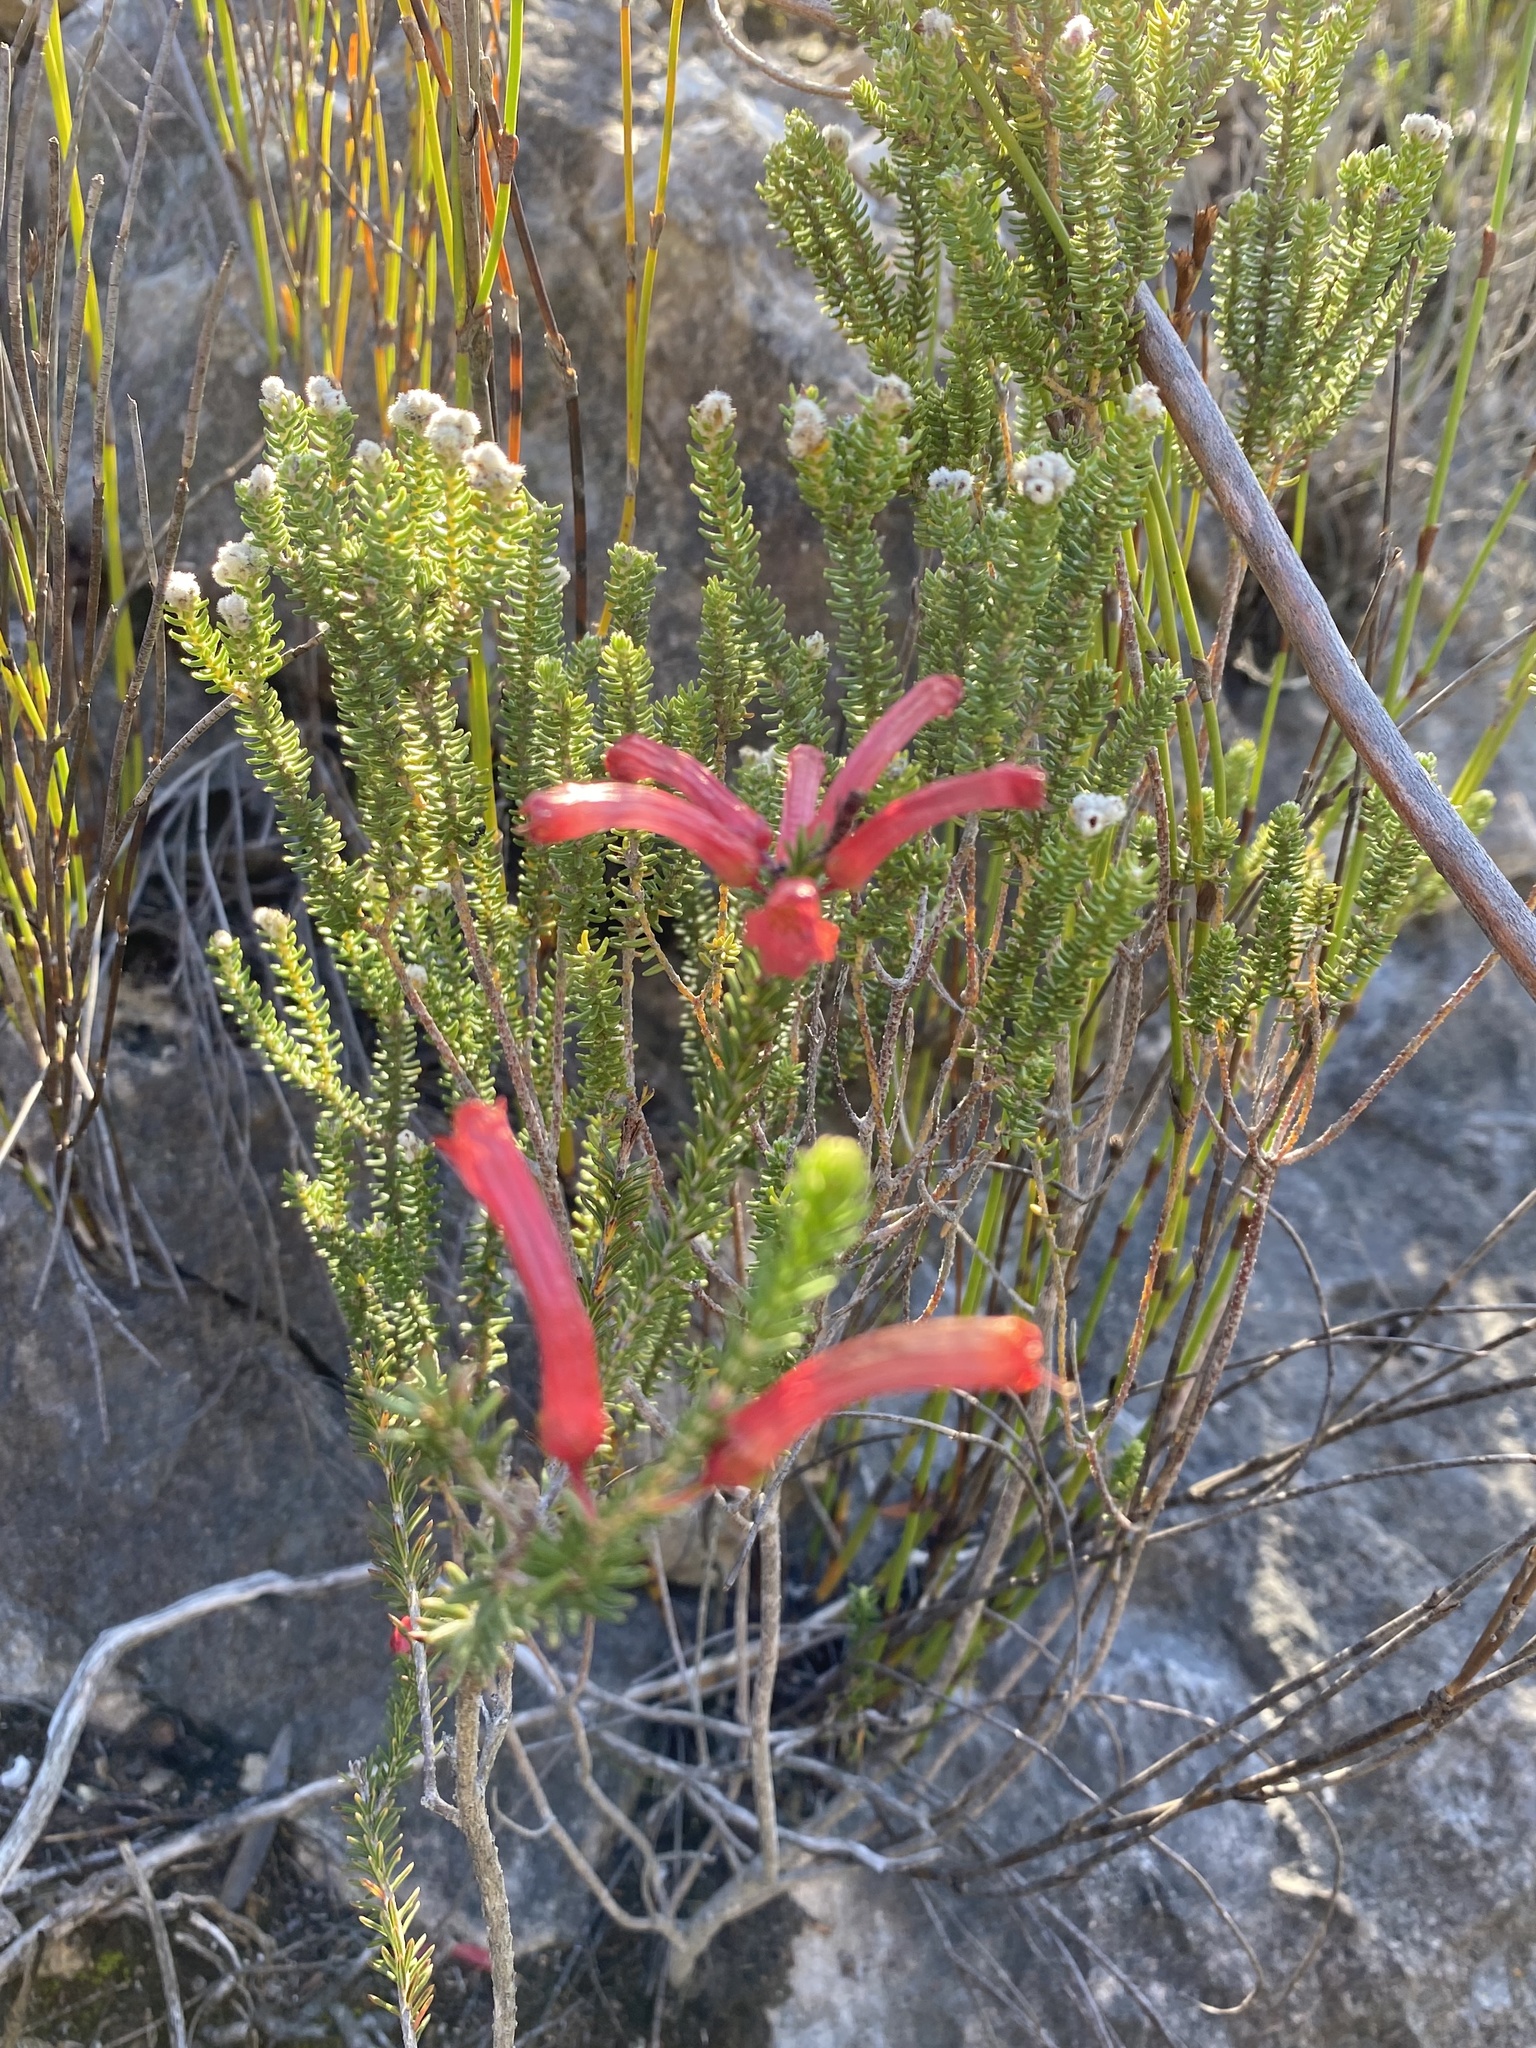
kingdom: Plantae
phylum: Tracheophyta
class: Magnoliopsida
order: Ericales
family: Ericaceae
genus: Erica
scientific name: Erica regia
